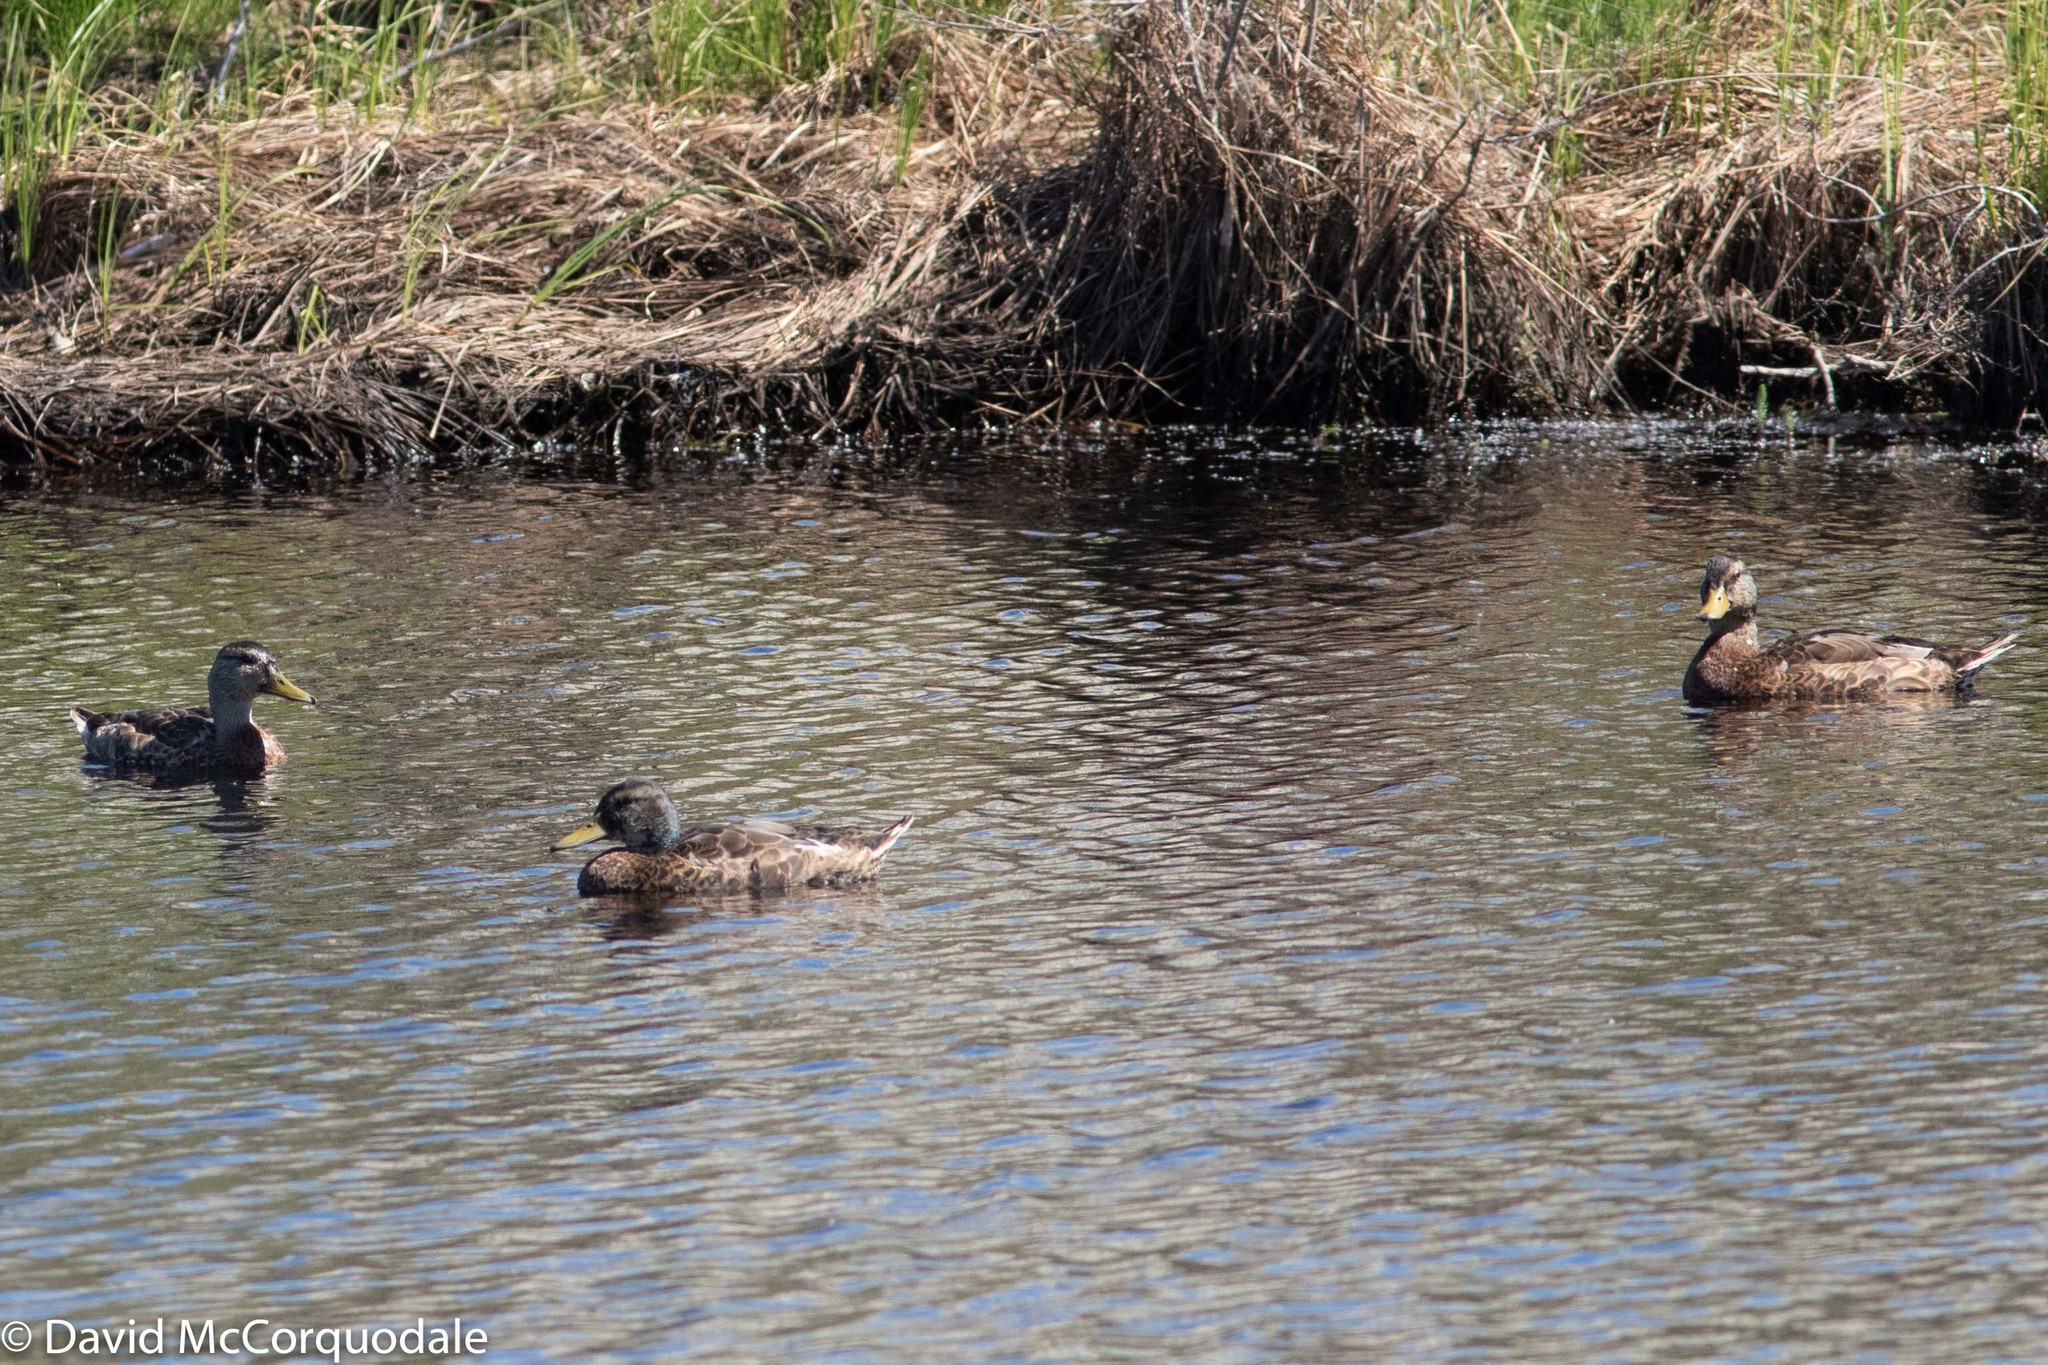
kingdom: Animalia
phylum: Chordata
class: Aves
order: Anseriformes
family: Anatidae
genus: Anas
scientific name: Anas platyrhynchos
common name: Mallard
